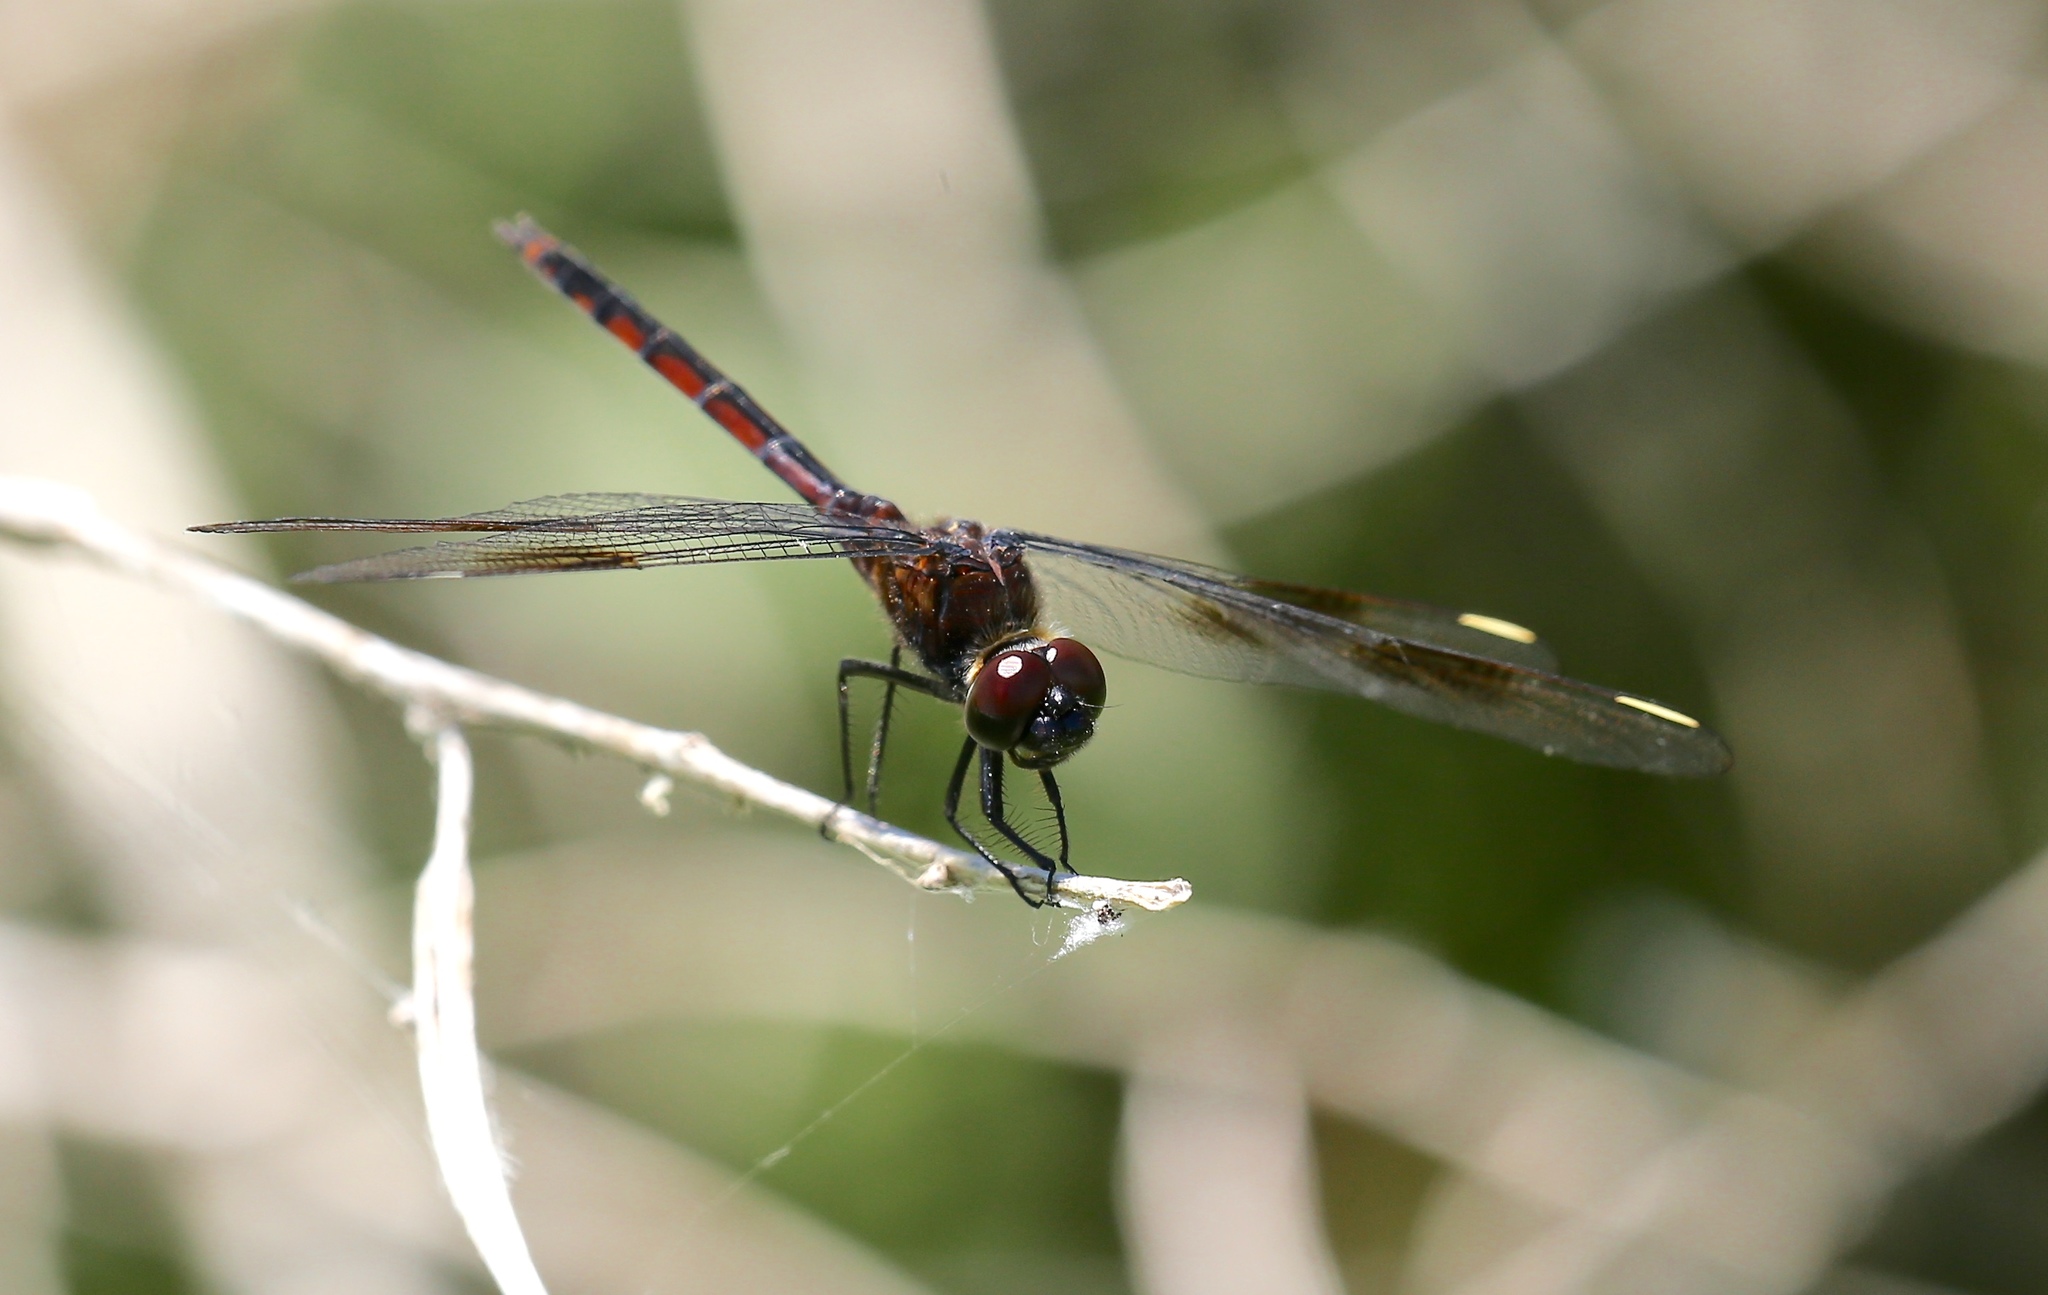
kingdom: Animalia
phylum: Arthropoda
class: Insecta
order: Odonata
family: Libellulidae
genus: Brachymesia
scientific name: Brachymesia gravida
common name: Four-spotted pennant
